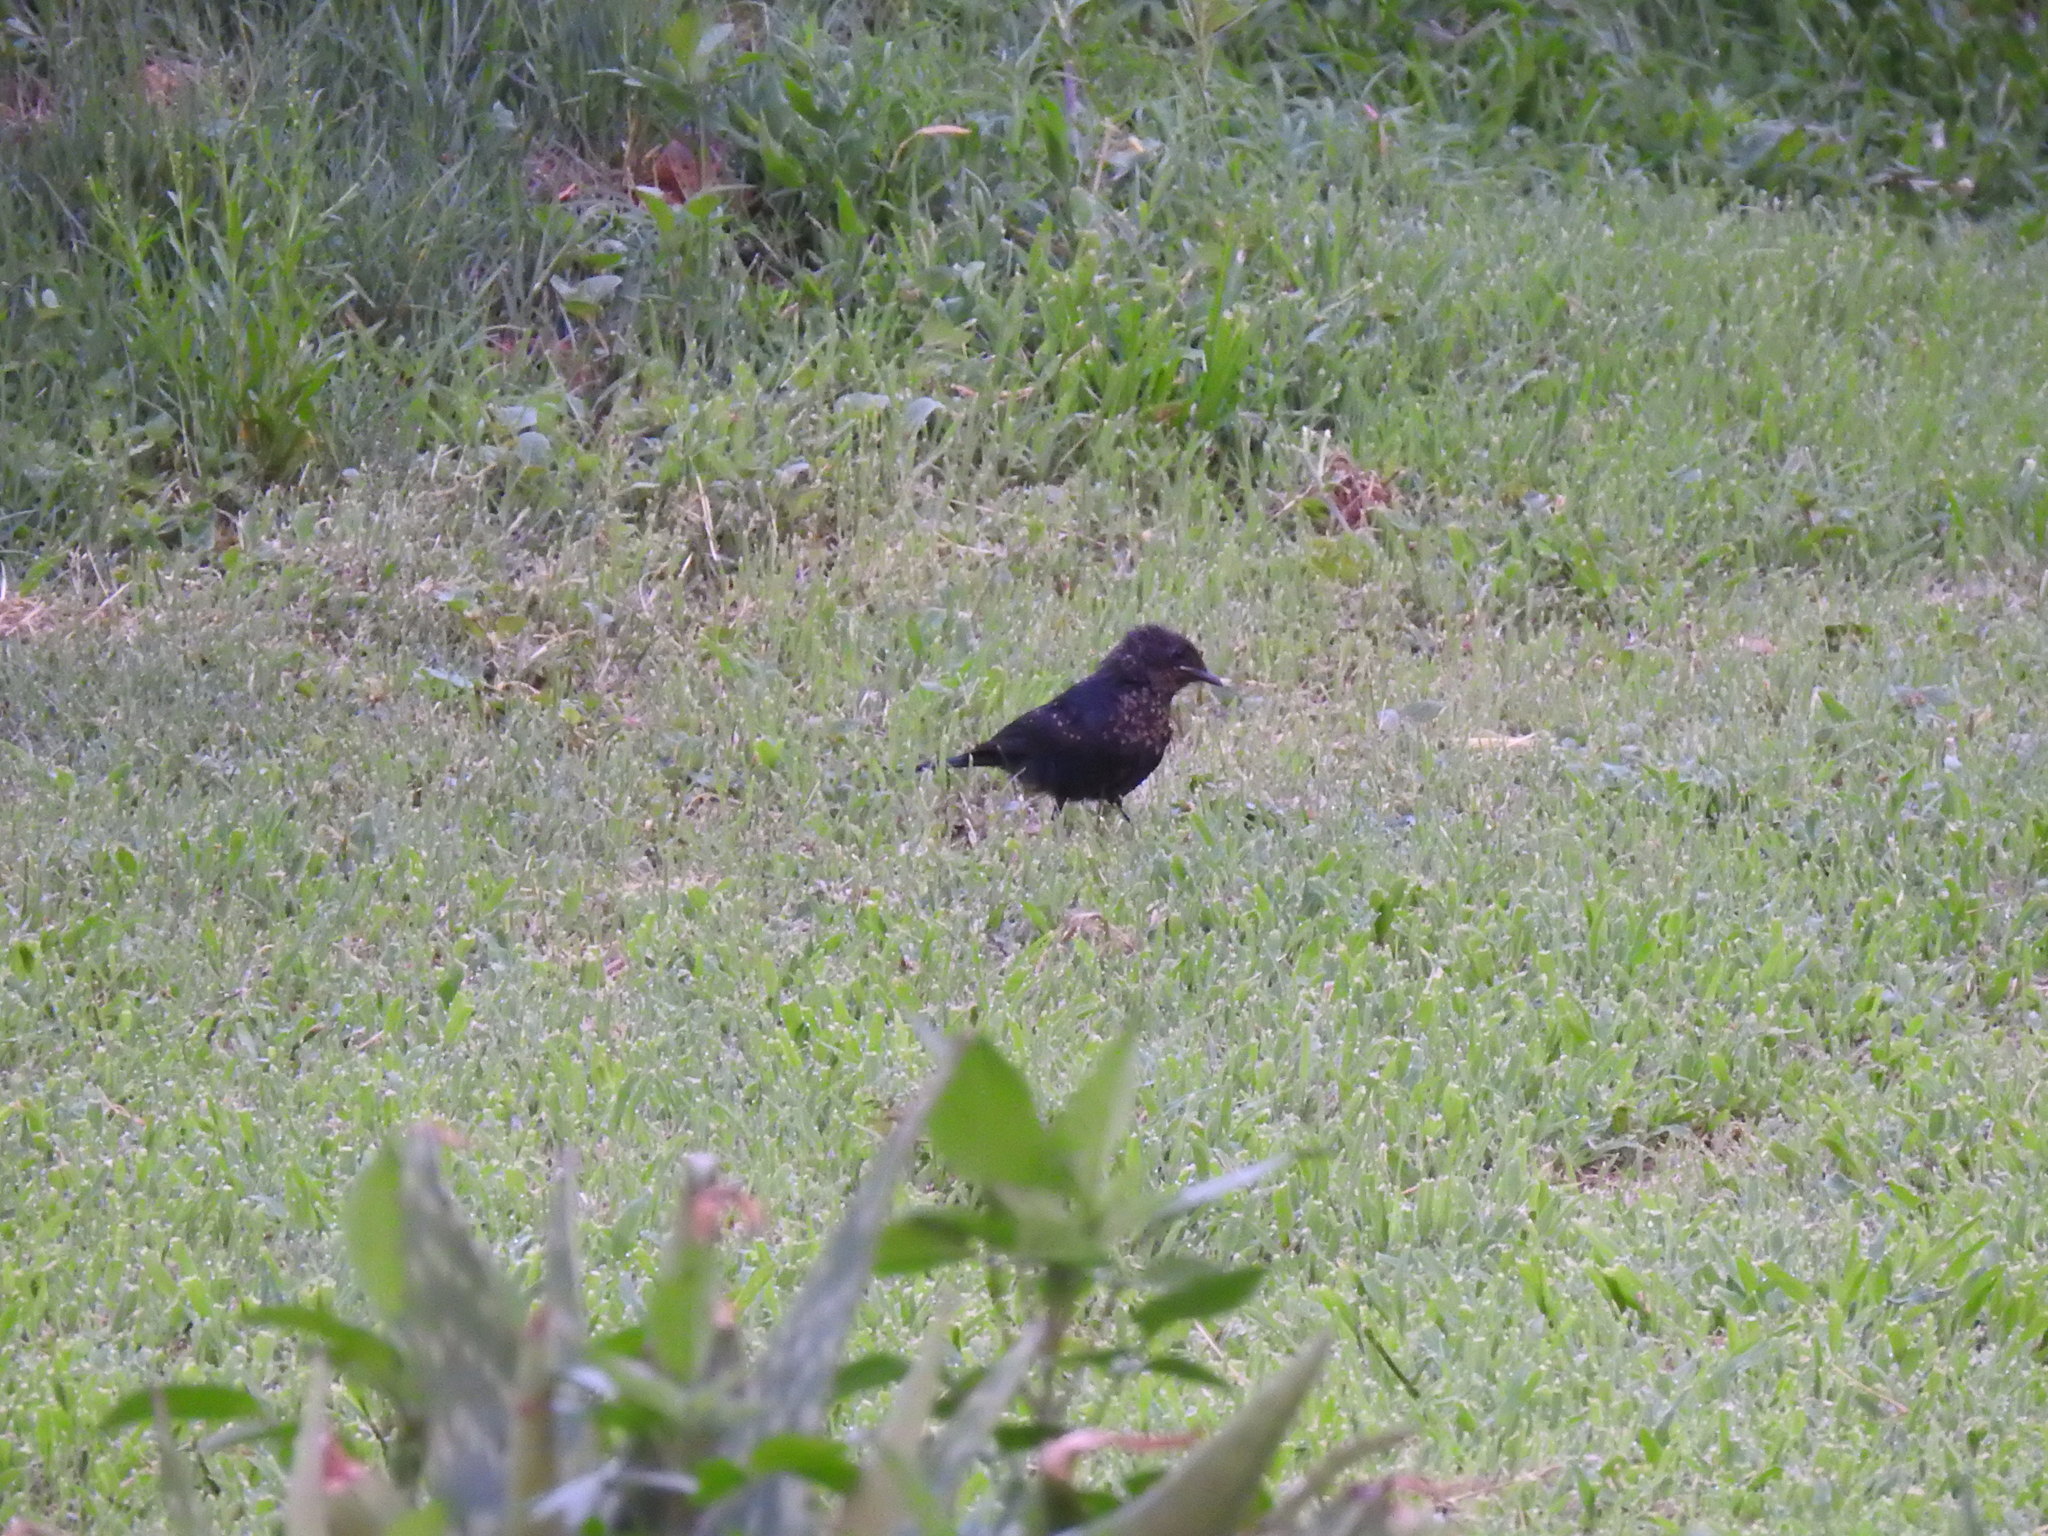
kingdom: Animalia
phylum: Chordata
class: Aves
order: Passeriformes
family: Muscicapidae
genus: Melaenornis
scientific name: Melaenornis pammelaina
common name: Southern black flycatcher
